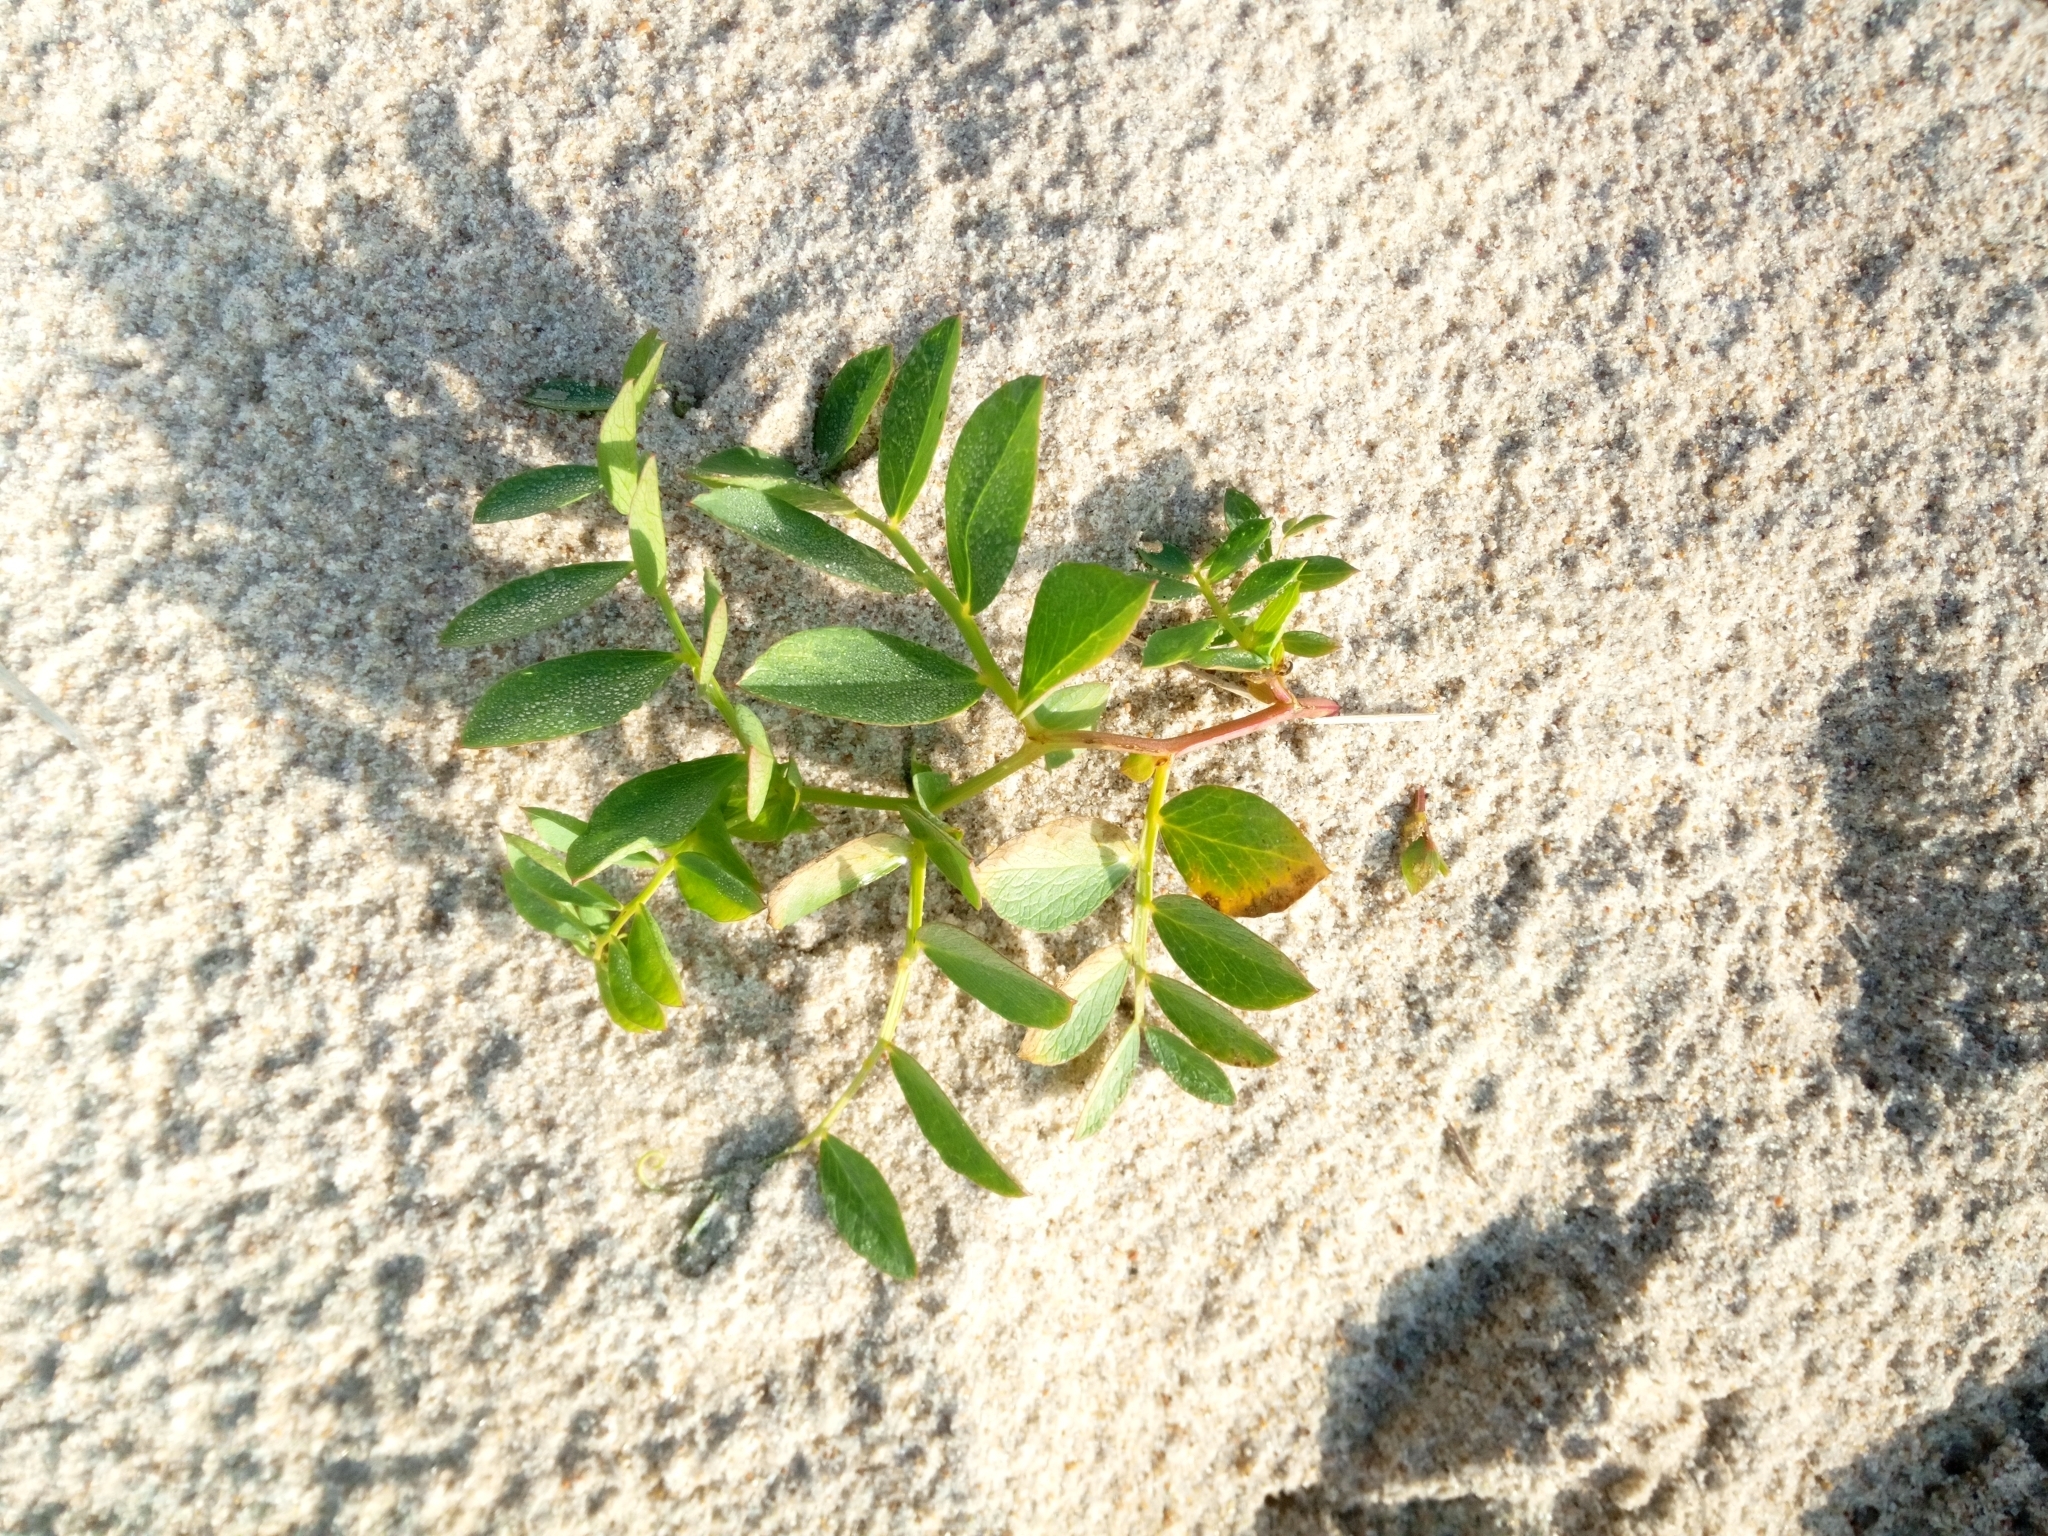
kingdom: Plantae
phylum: Tracheophyta
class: Magnoliopsida
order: Fabales
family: Fabaceae
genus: Lathyrus
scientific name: Lathyrus japonicus
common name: Sea pea
